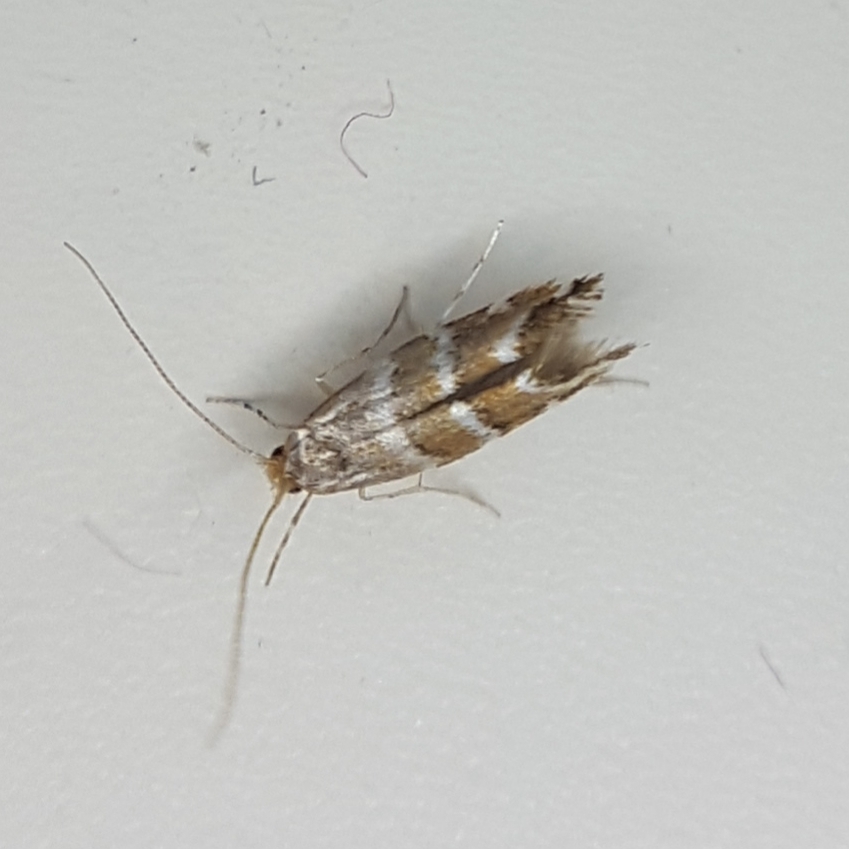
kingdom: Animalia
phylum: Arthropoda
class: Insecta
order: Lepidoptera
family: Gracillariidae
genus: Cameraria
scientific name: Cameraria ohridella
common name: Horse-chestnut leaf-miner
